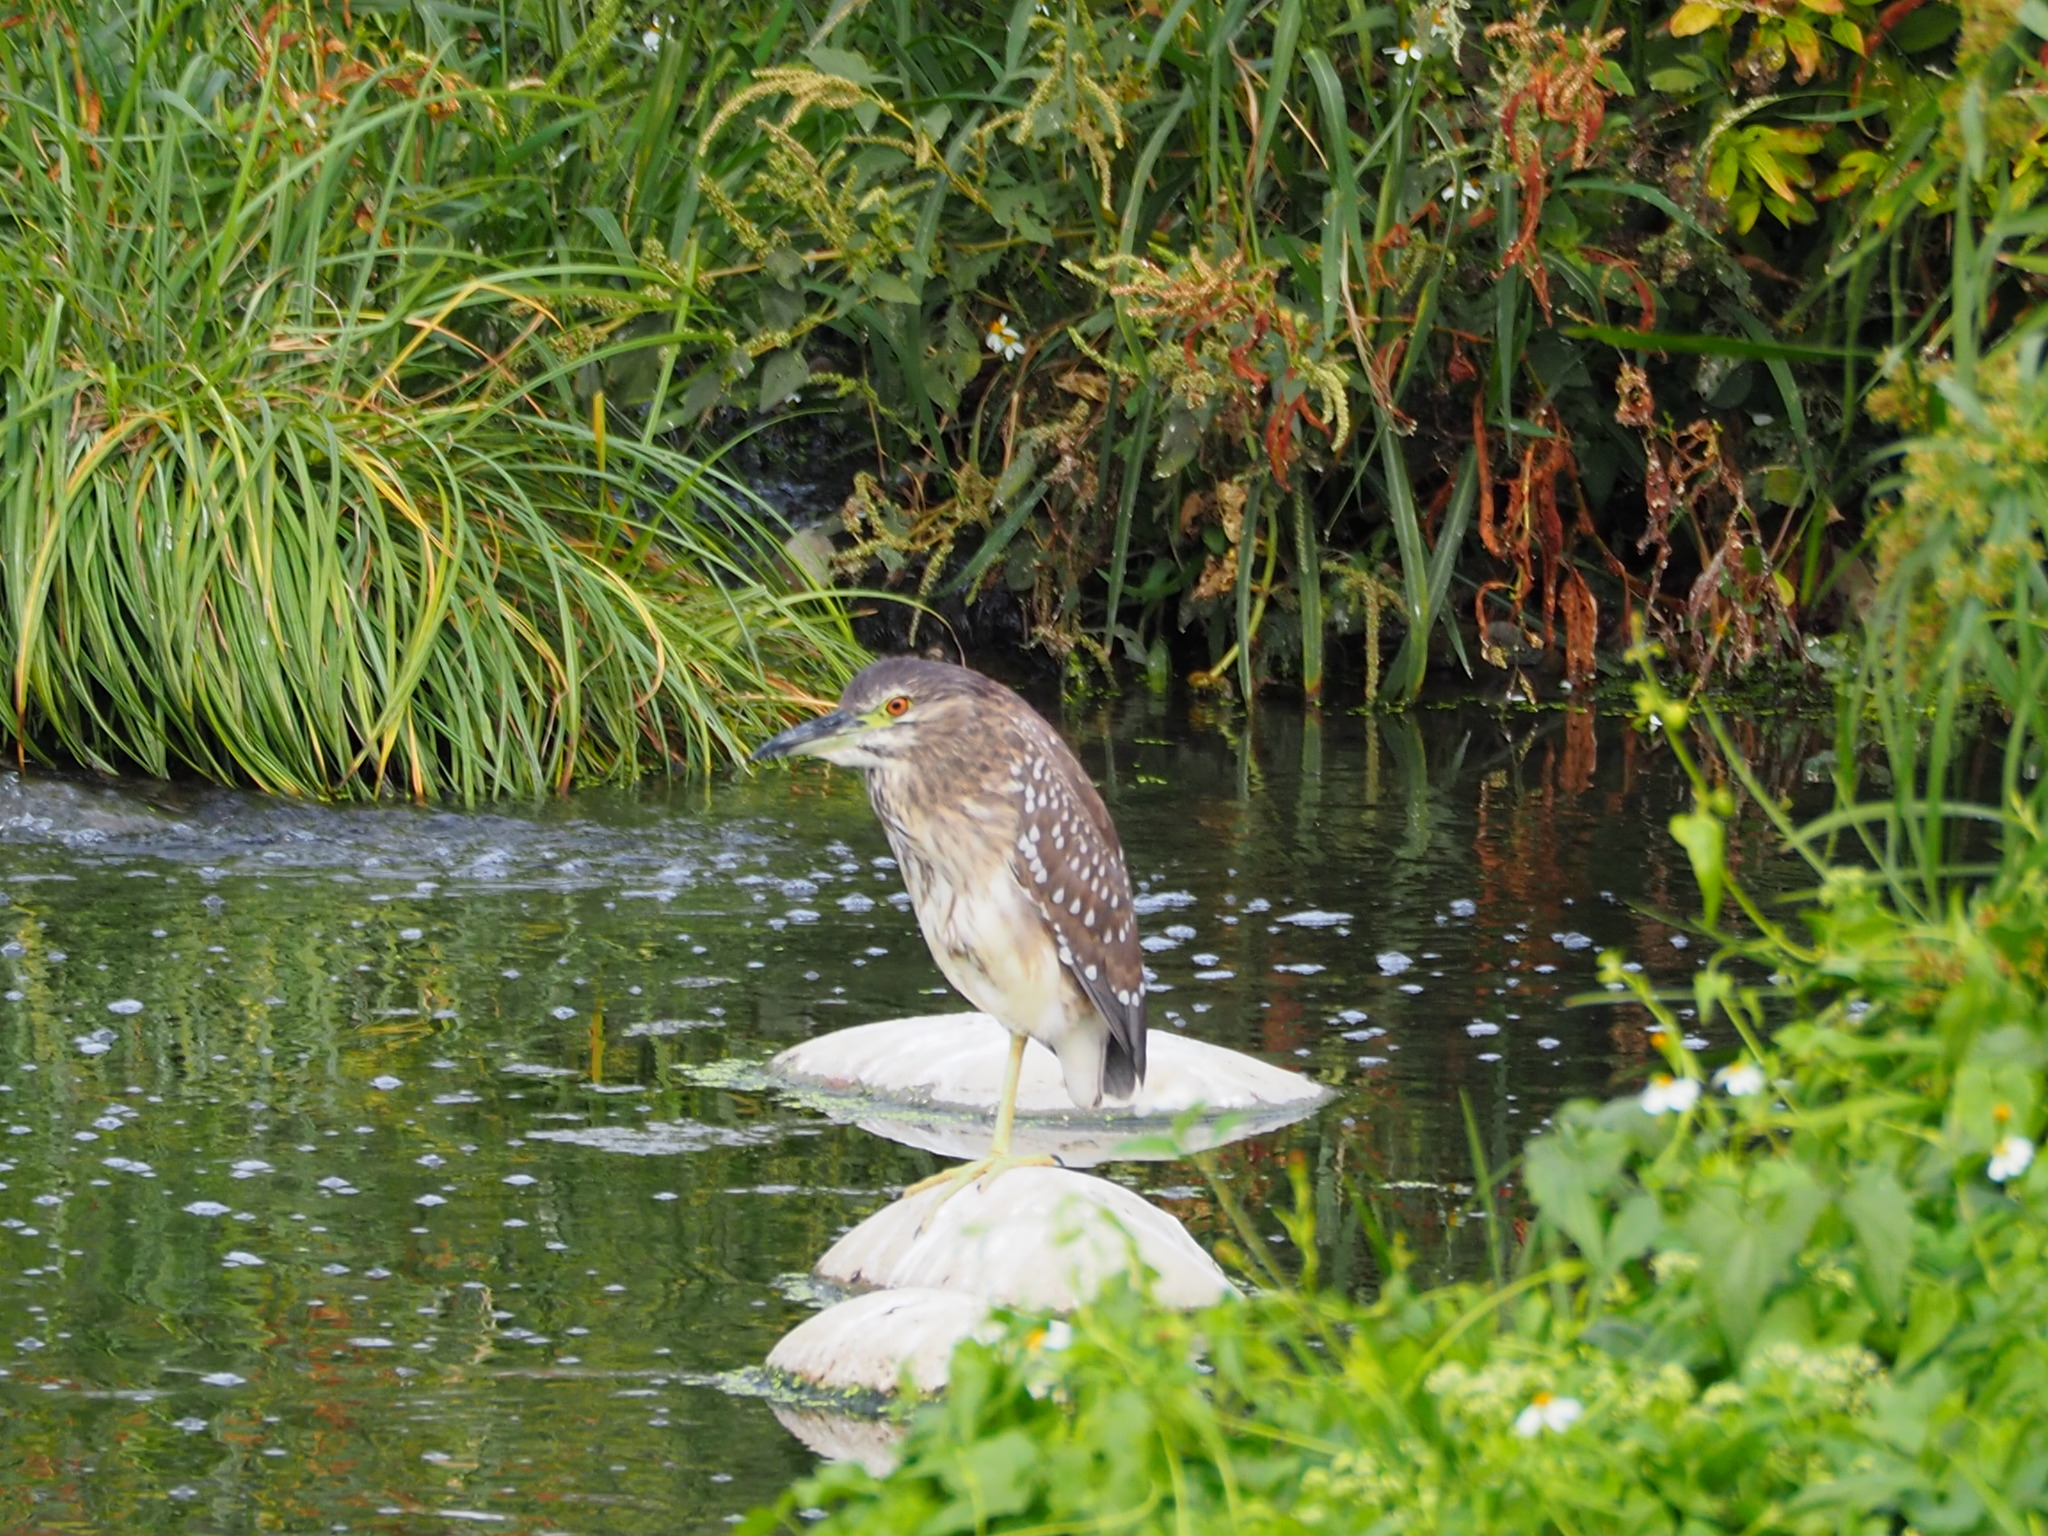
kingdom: Animalia
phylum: Chordata
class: Aves
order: Pelecaniformes
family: Ardeidae
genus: Nycticorax
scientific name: Nycticorax nycticorax
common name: Black-crowned night heron
